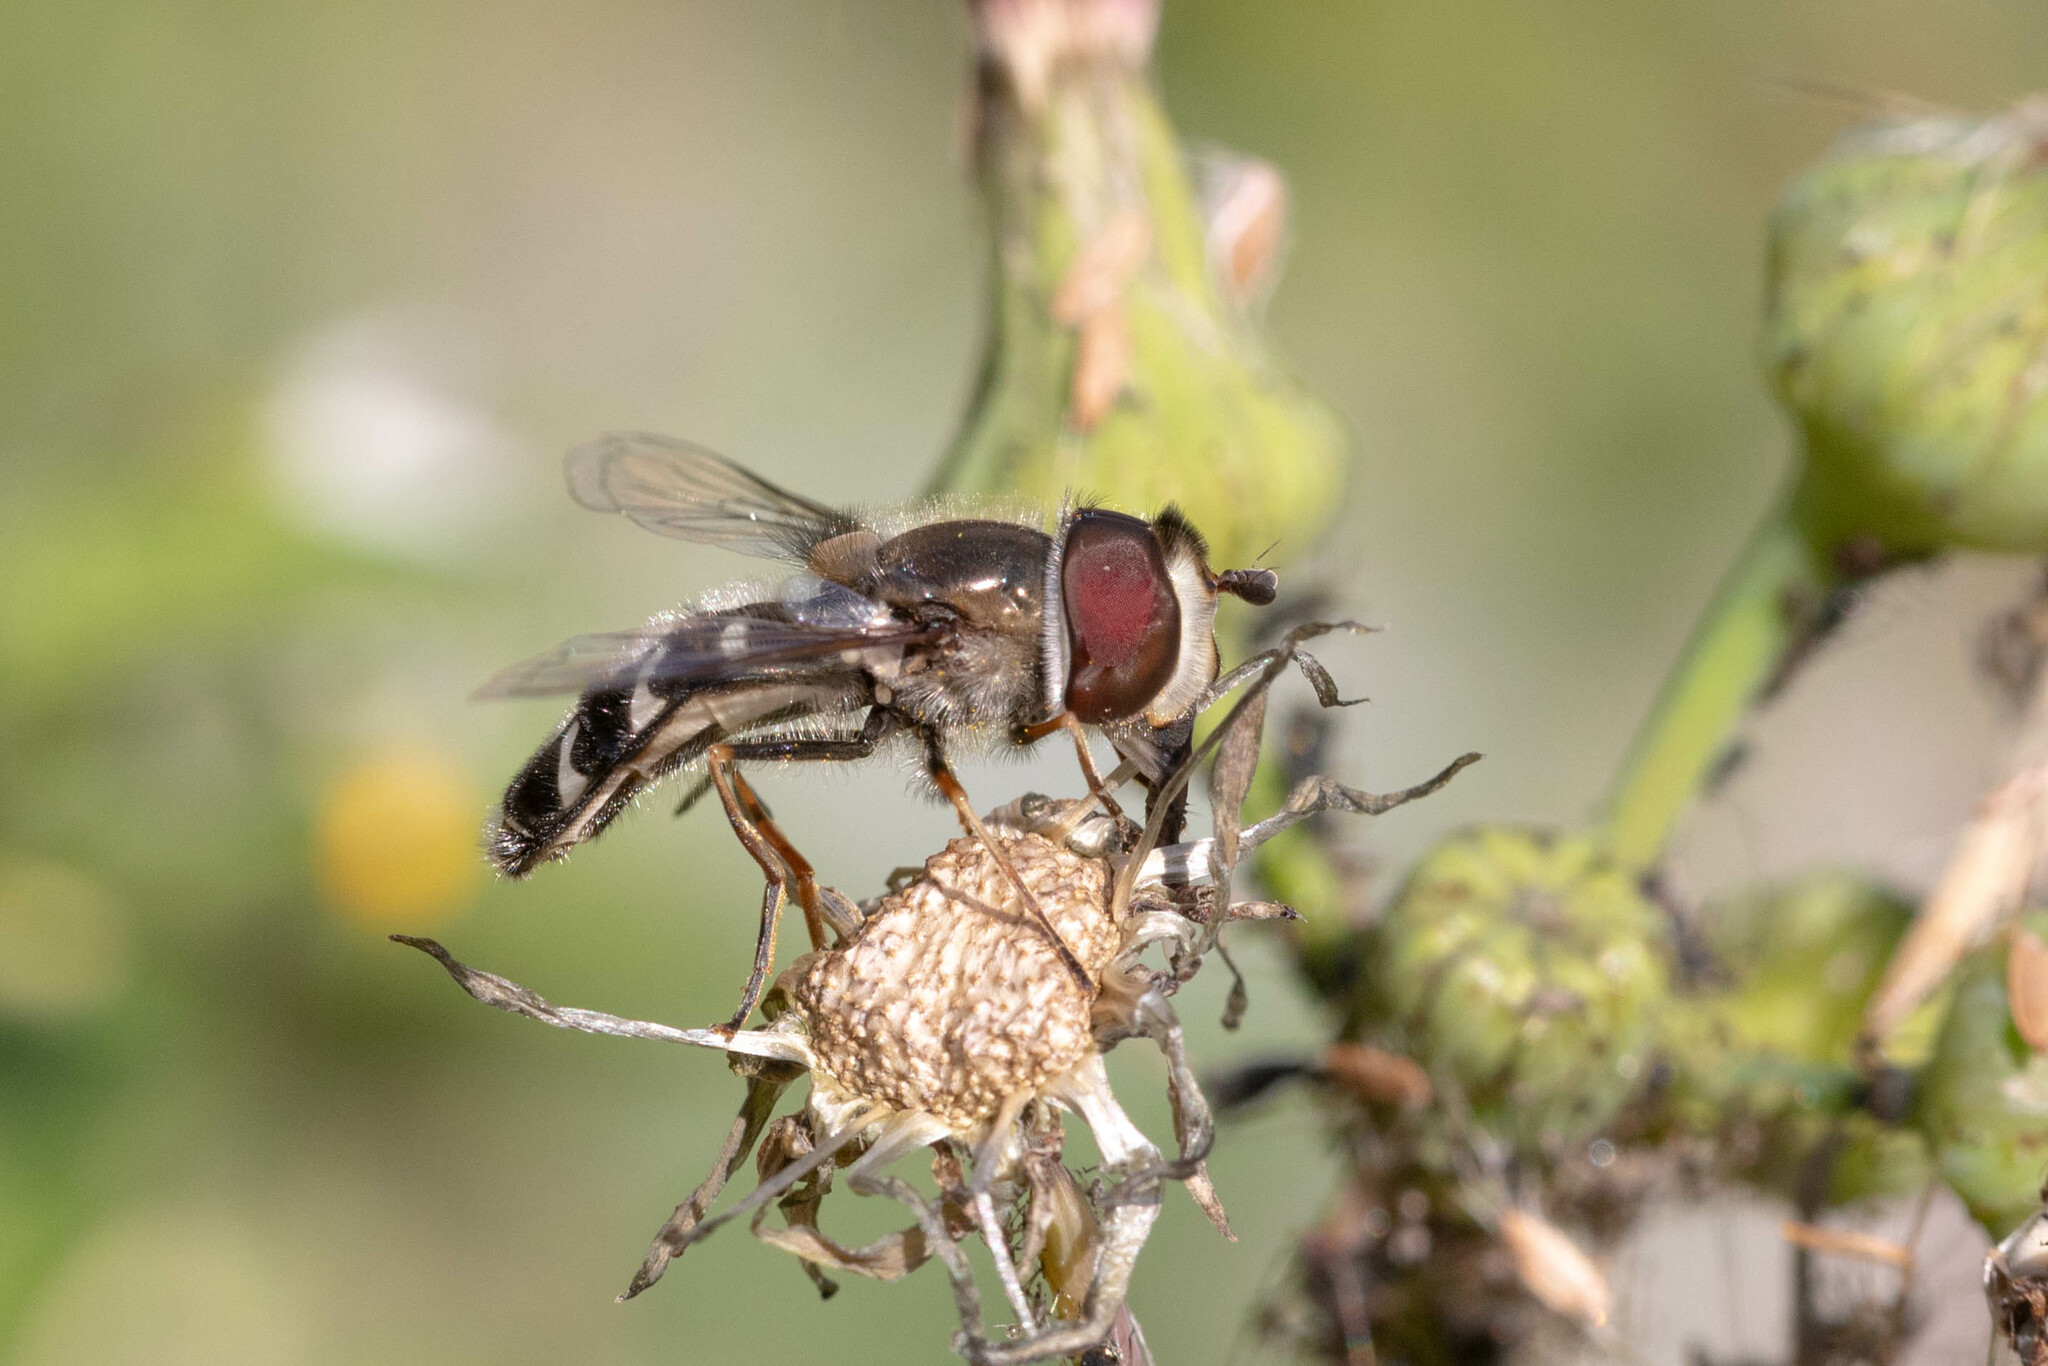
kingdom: Animalia
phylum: Arthropoda
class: Insecta
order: Diptera
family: Syrphidae
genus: Scaeva
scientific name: Scaeva affinis
